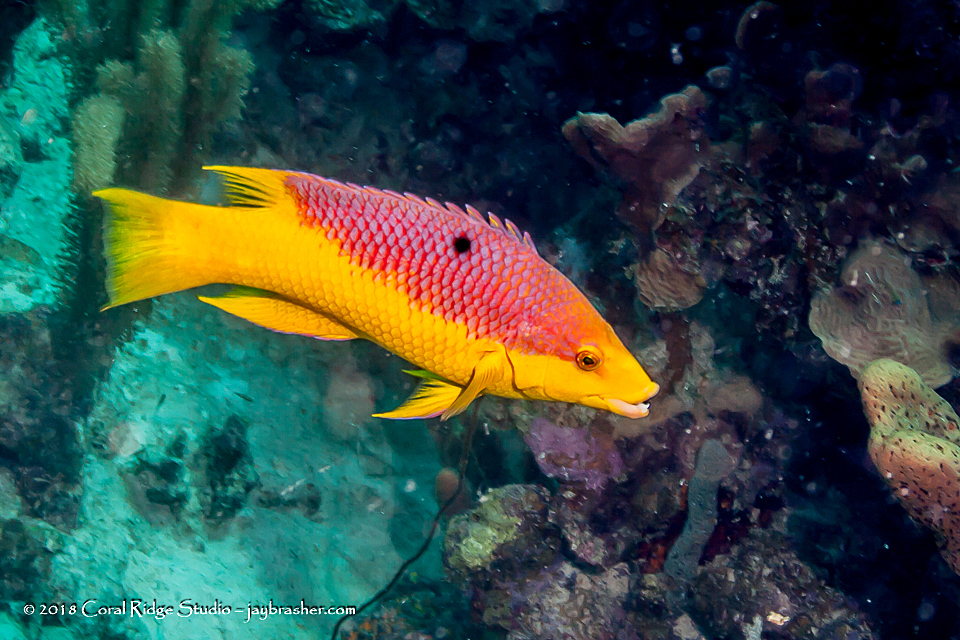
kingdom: Animalia
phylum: Chordata
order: Perciformes
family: Labridae
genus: Bodianus
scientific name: Bodianus rufus
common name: Spanish hogfish
